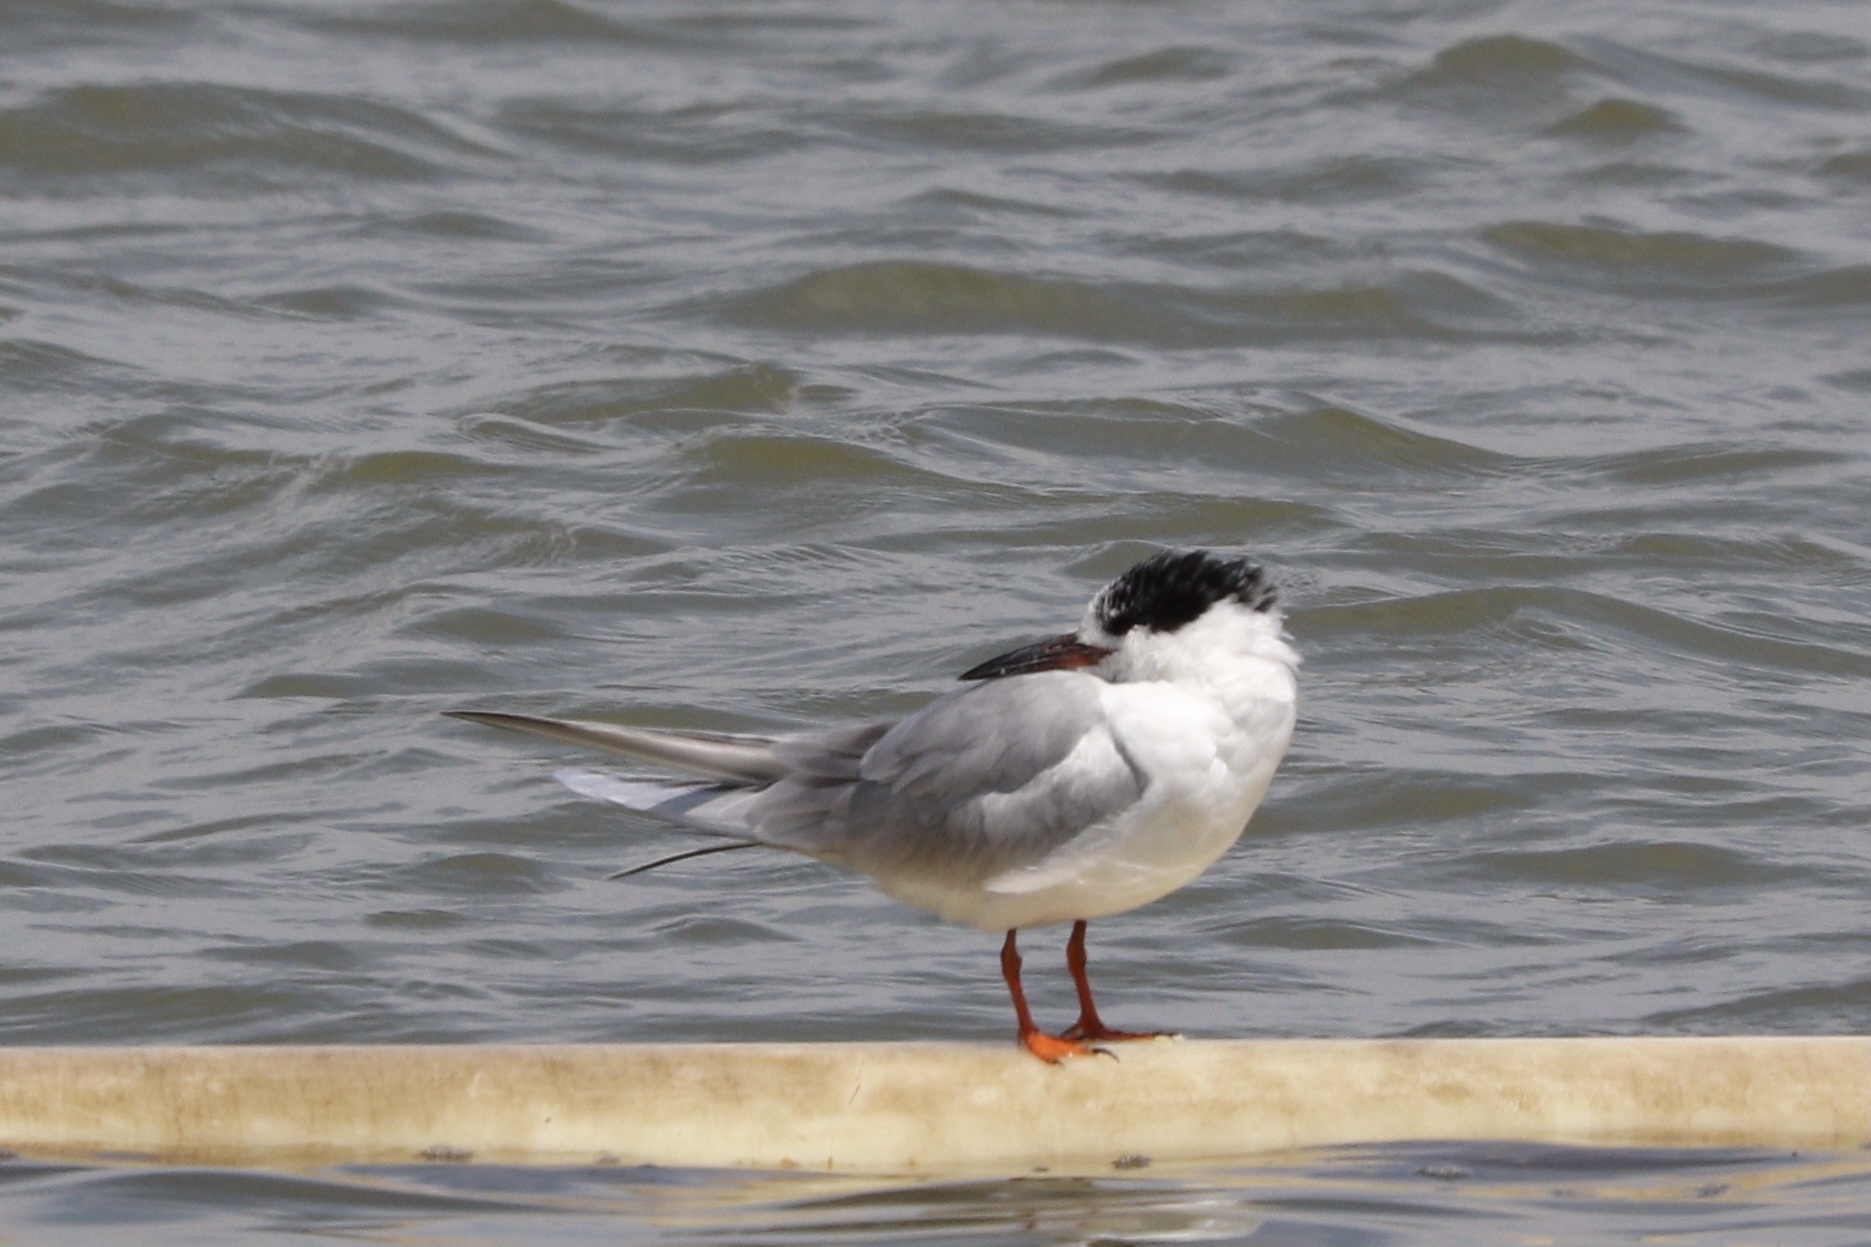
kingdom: Animalia
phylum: Chordata
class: Aves
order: Charadriiformes
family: Laridae
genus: Sterna
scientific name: Sterna forsteri
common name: Forster's tern
